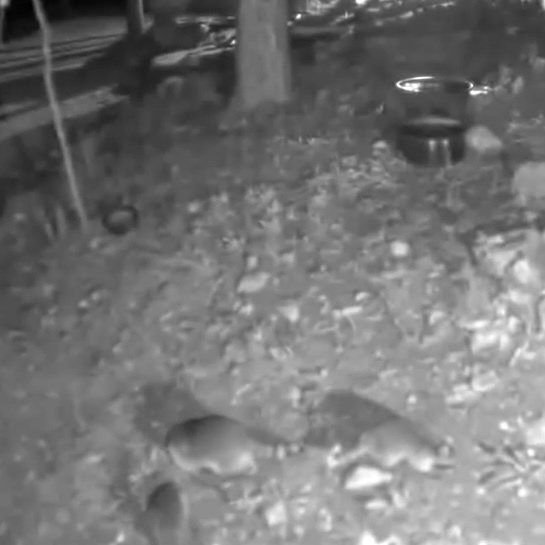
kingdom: Animalia
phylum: Chordata
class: Mammalia
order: Carnivora
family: Procyonidae
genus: Procyon
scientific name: Procyon lotor
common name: Raccoon
